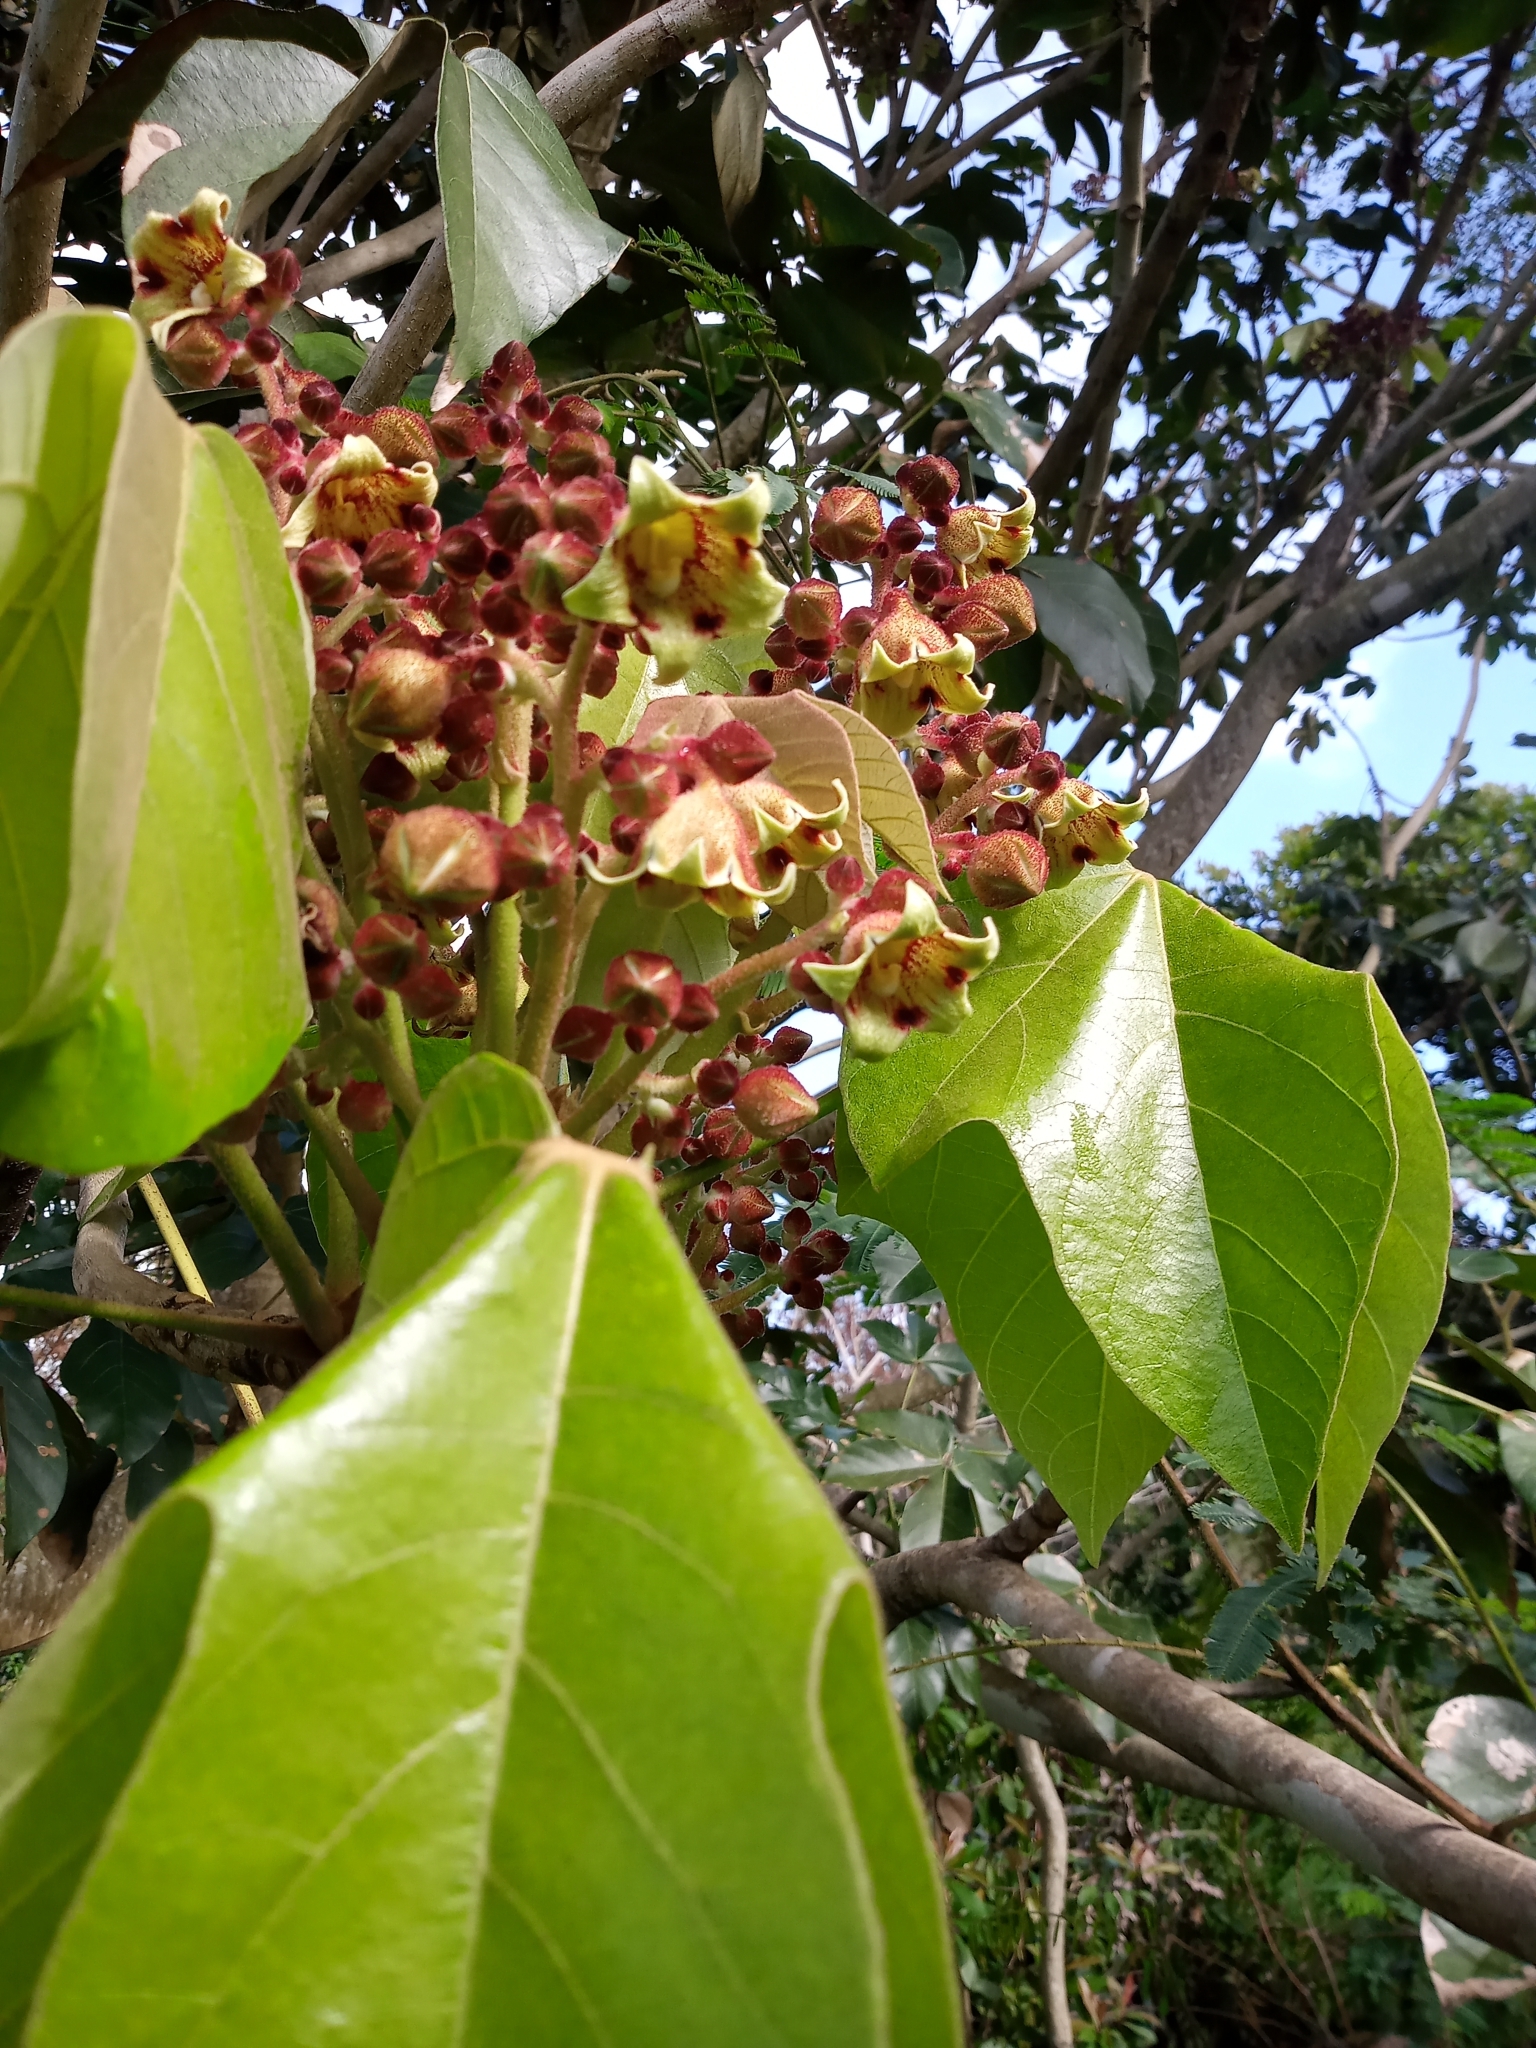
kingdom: Plantae
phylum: Tracheophyta
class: Magnoliopsida
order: Malvales
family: Malvaceae
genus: Sterculia
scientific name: Sterculia apetala
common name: Panama tree
